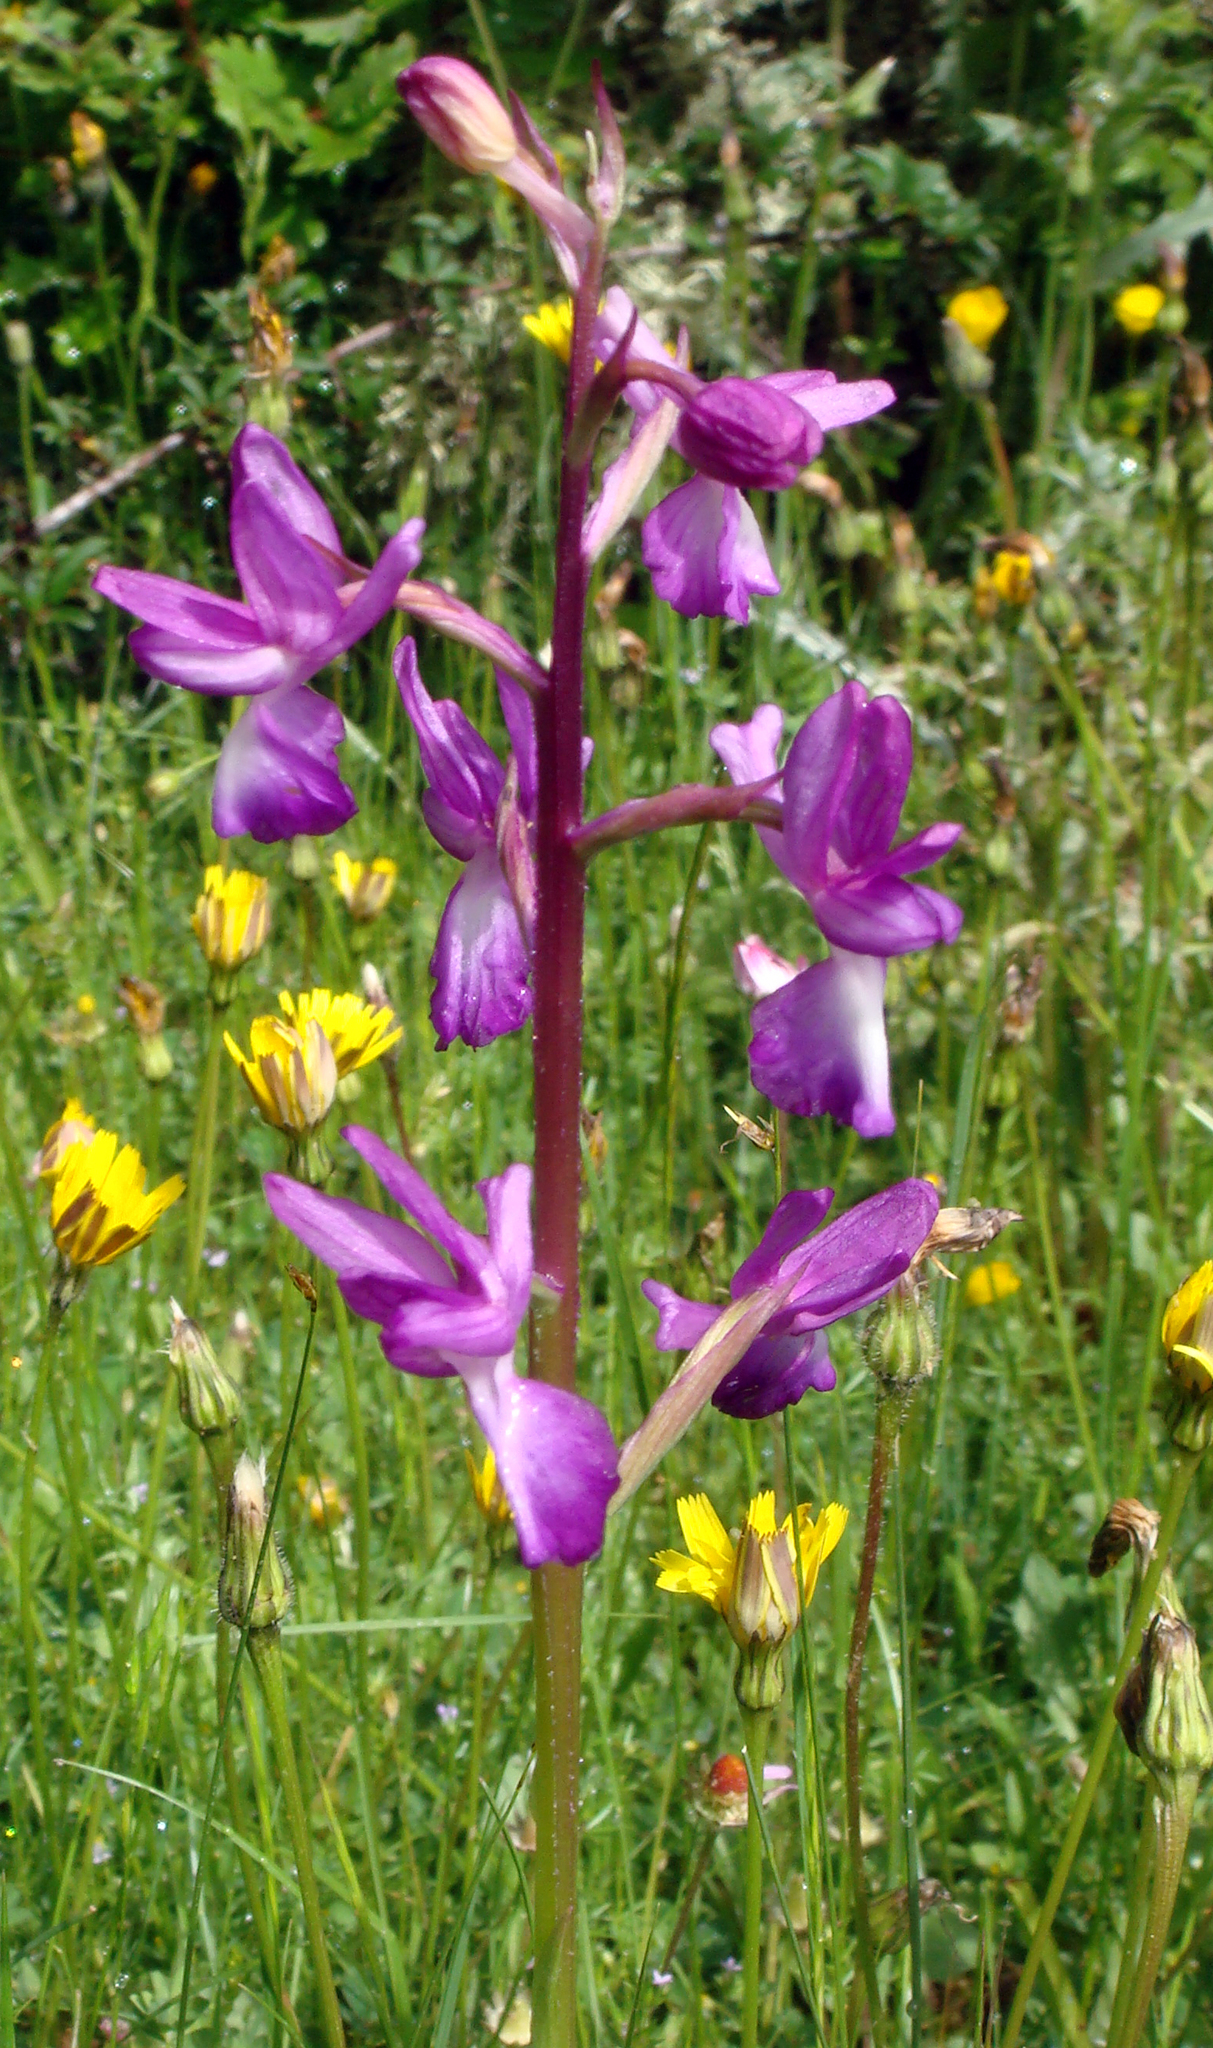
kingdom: Plantae
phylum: Tracheophyta
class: Liliopsida
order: Asparagales
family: Orchidaceae
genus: Anacamptis
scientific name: Anacamptis laxiflora
